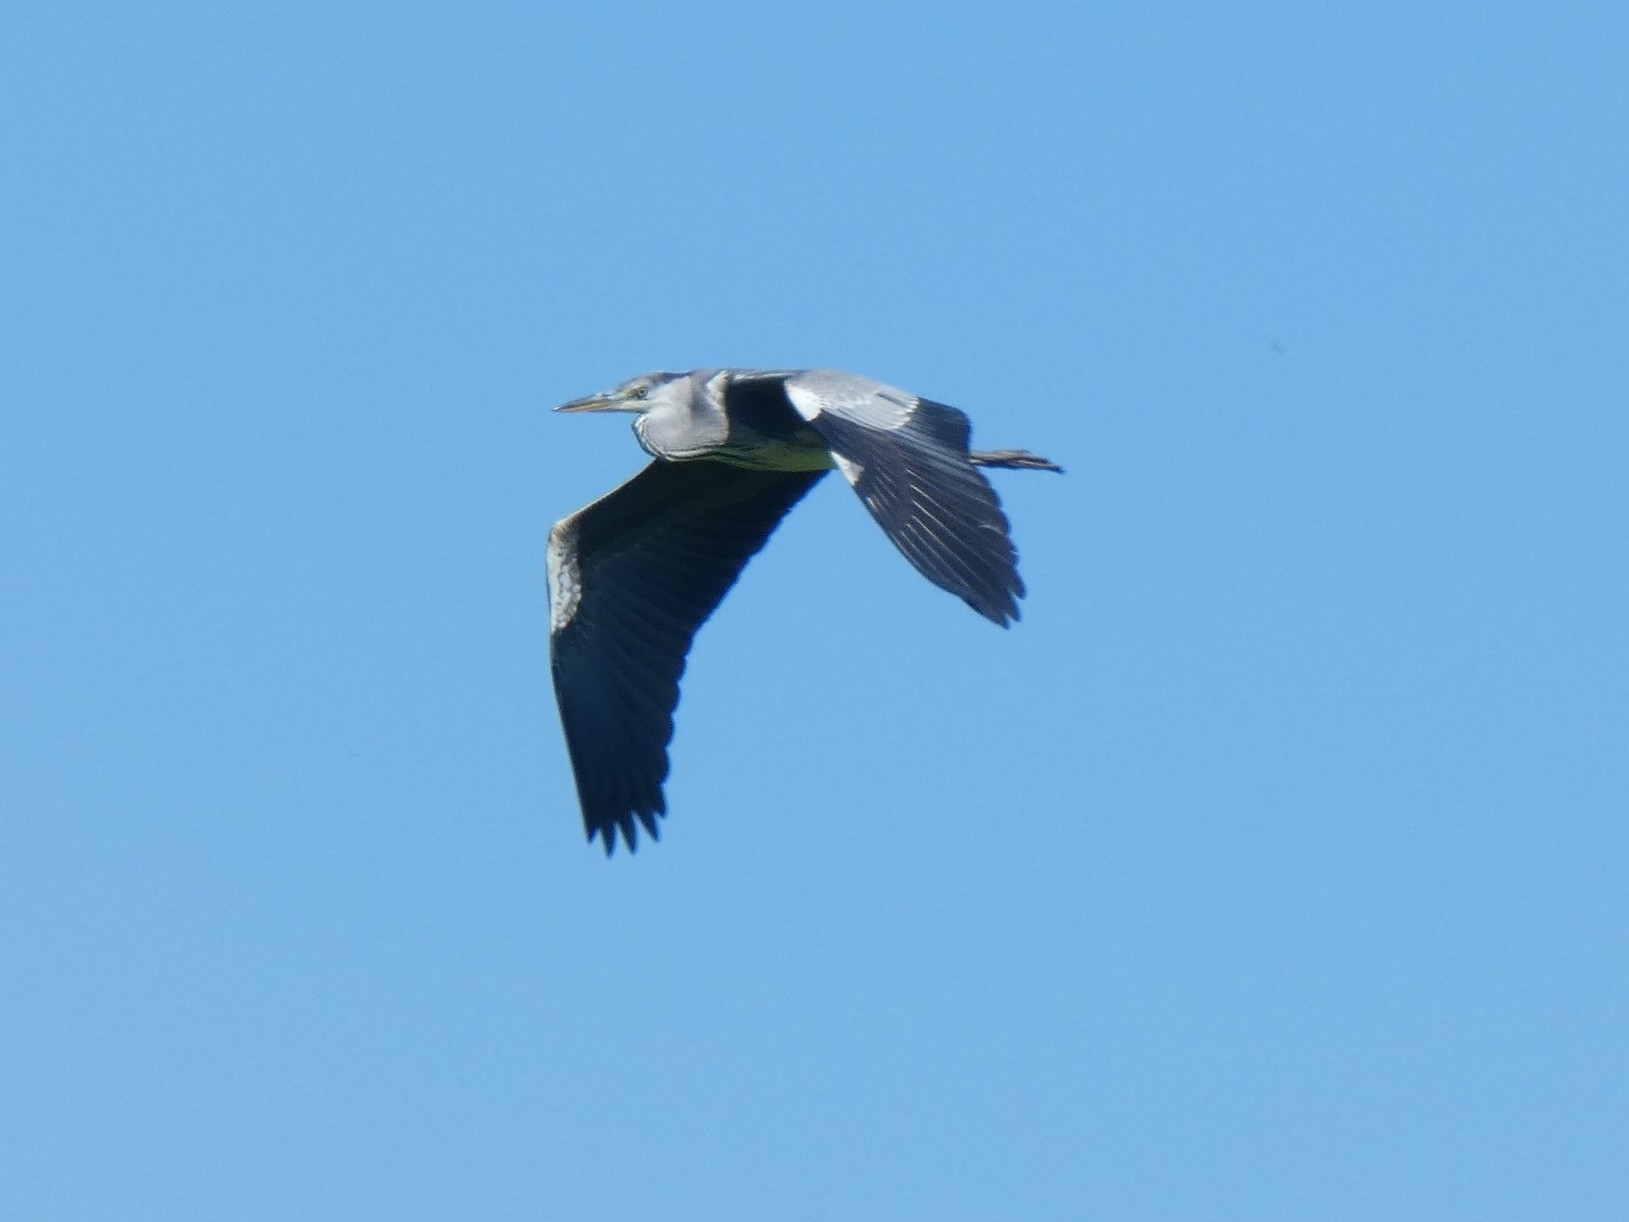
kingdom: Animalia
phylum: Chordata
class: Aves
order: Pelecaniformes
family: Ardeidae
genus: Ardea
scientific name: Ardea cinerea
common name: Grey heron
